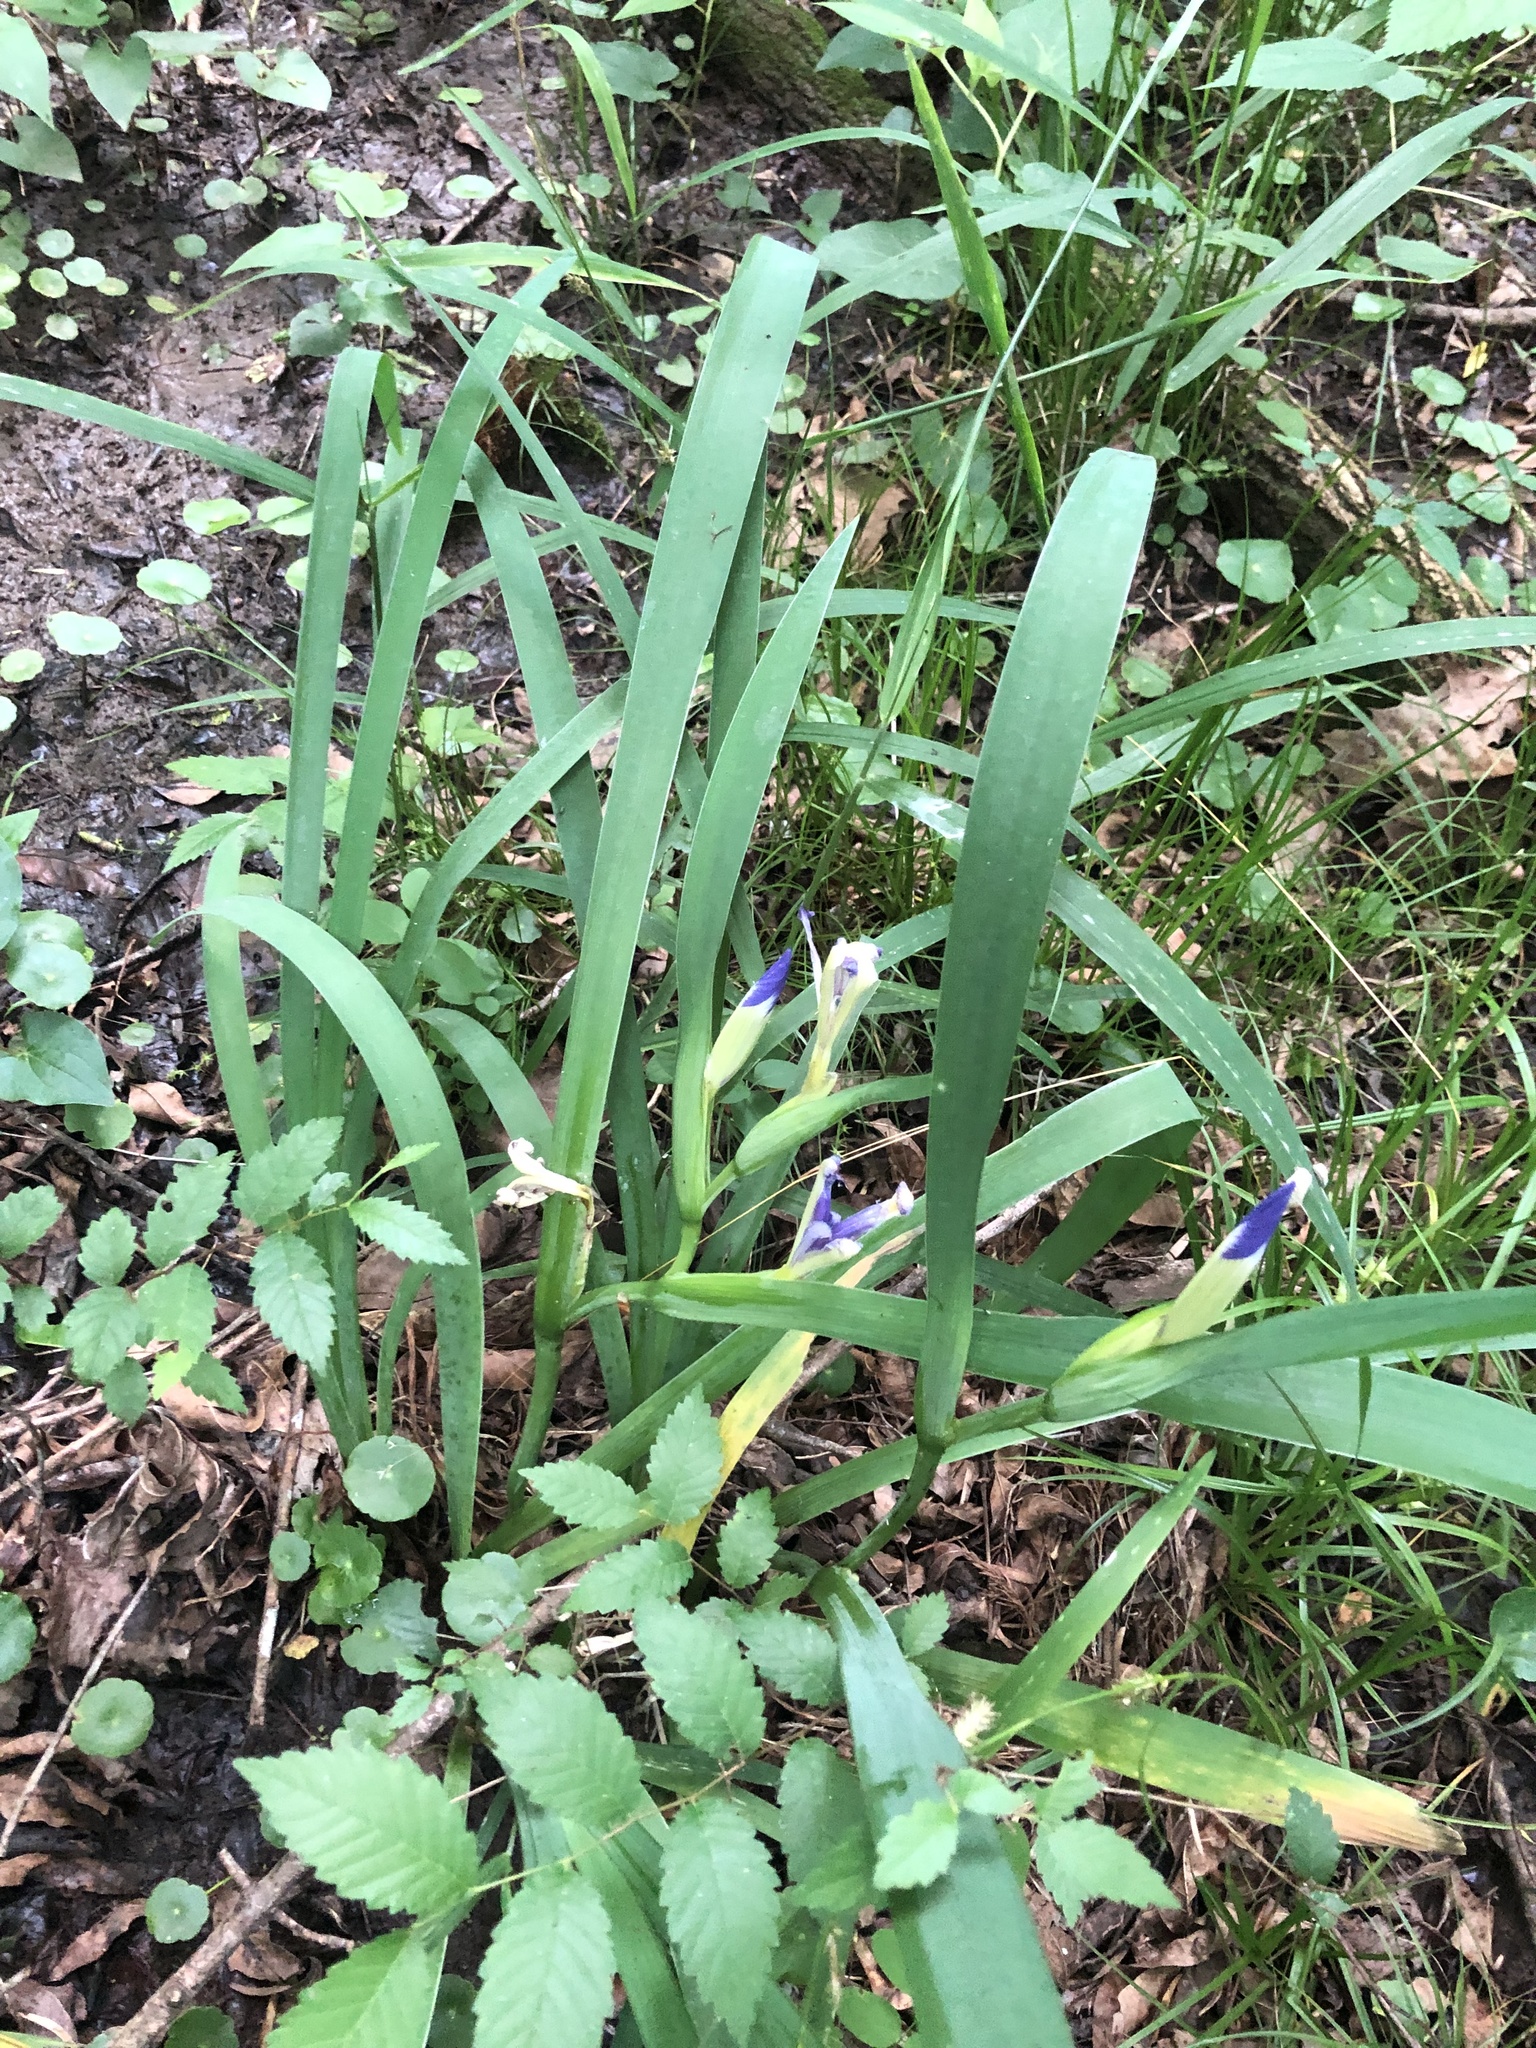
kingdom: Plantae
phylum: Tracheophyta
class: Liliopsida
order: Asparagales
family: Iridaceae
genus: Iris
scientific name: Iris brevicaulis
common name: Zigzag iris
